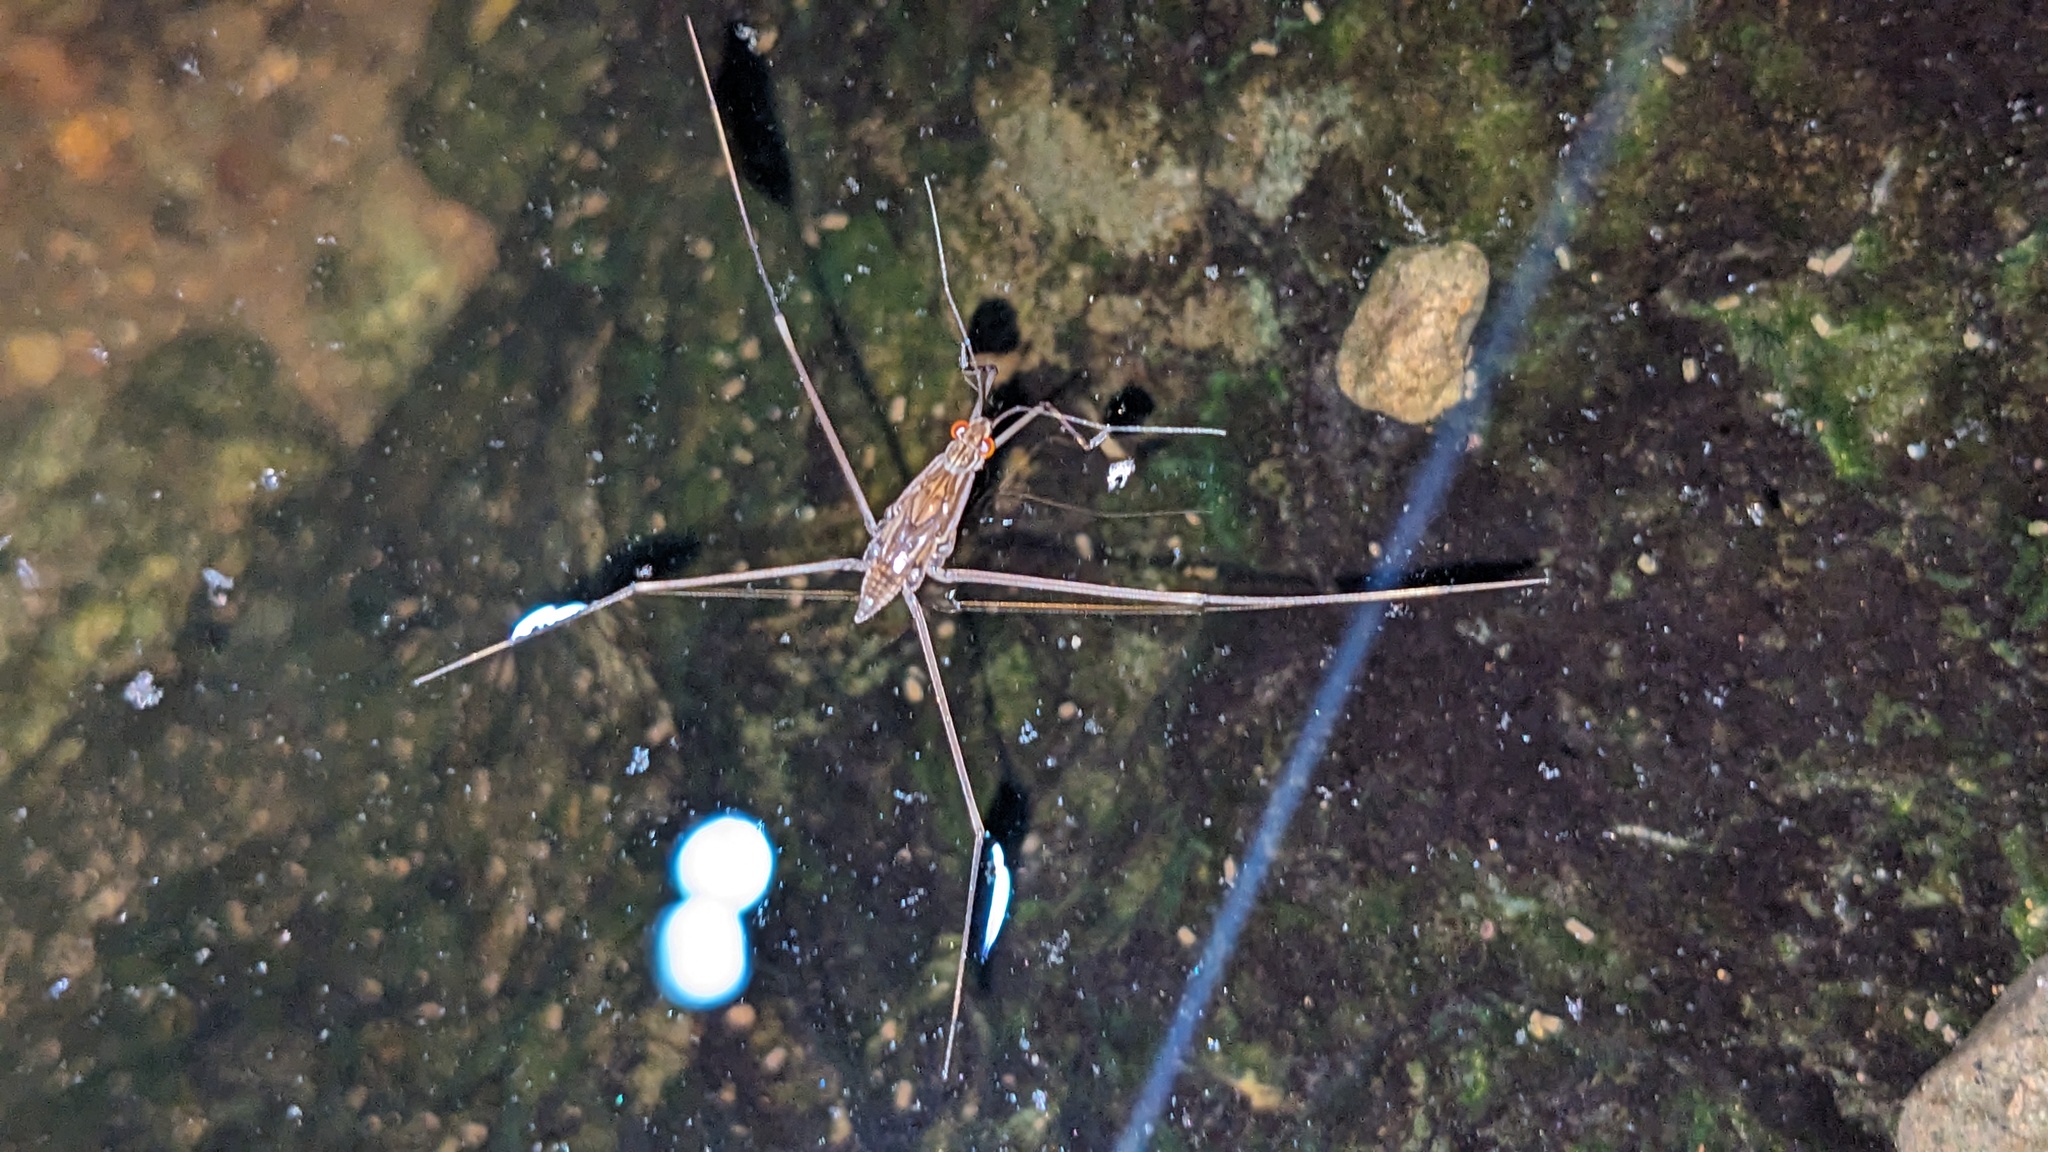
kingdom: Animalia
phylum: Arthropoda
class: Insecta
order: Hemiptera
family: Gerridae
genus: Limnometra
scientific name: Limnometra
